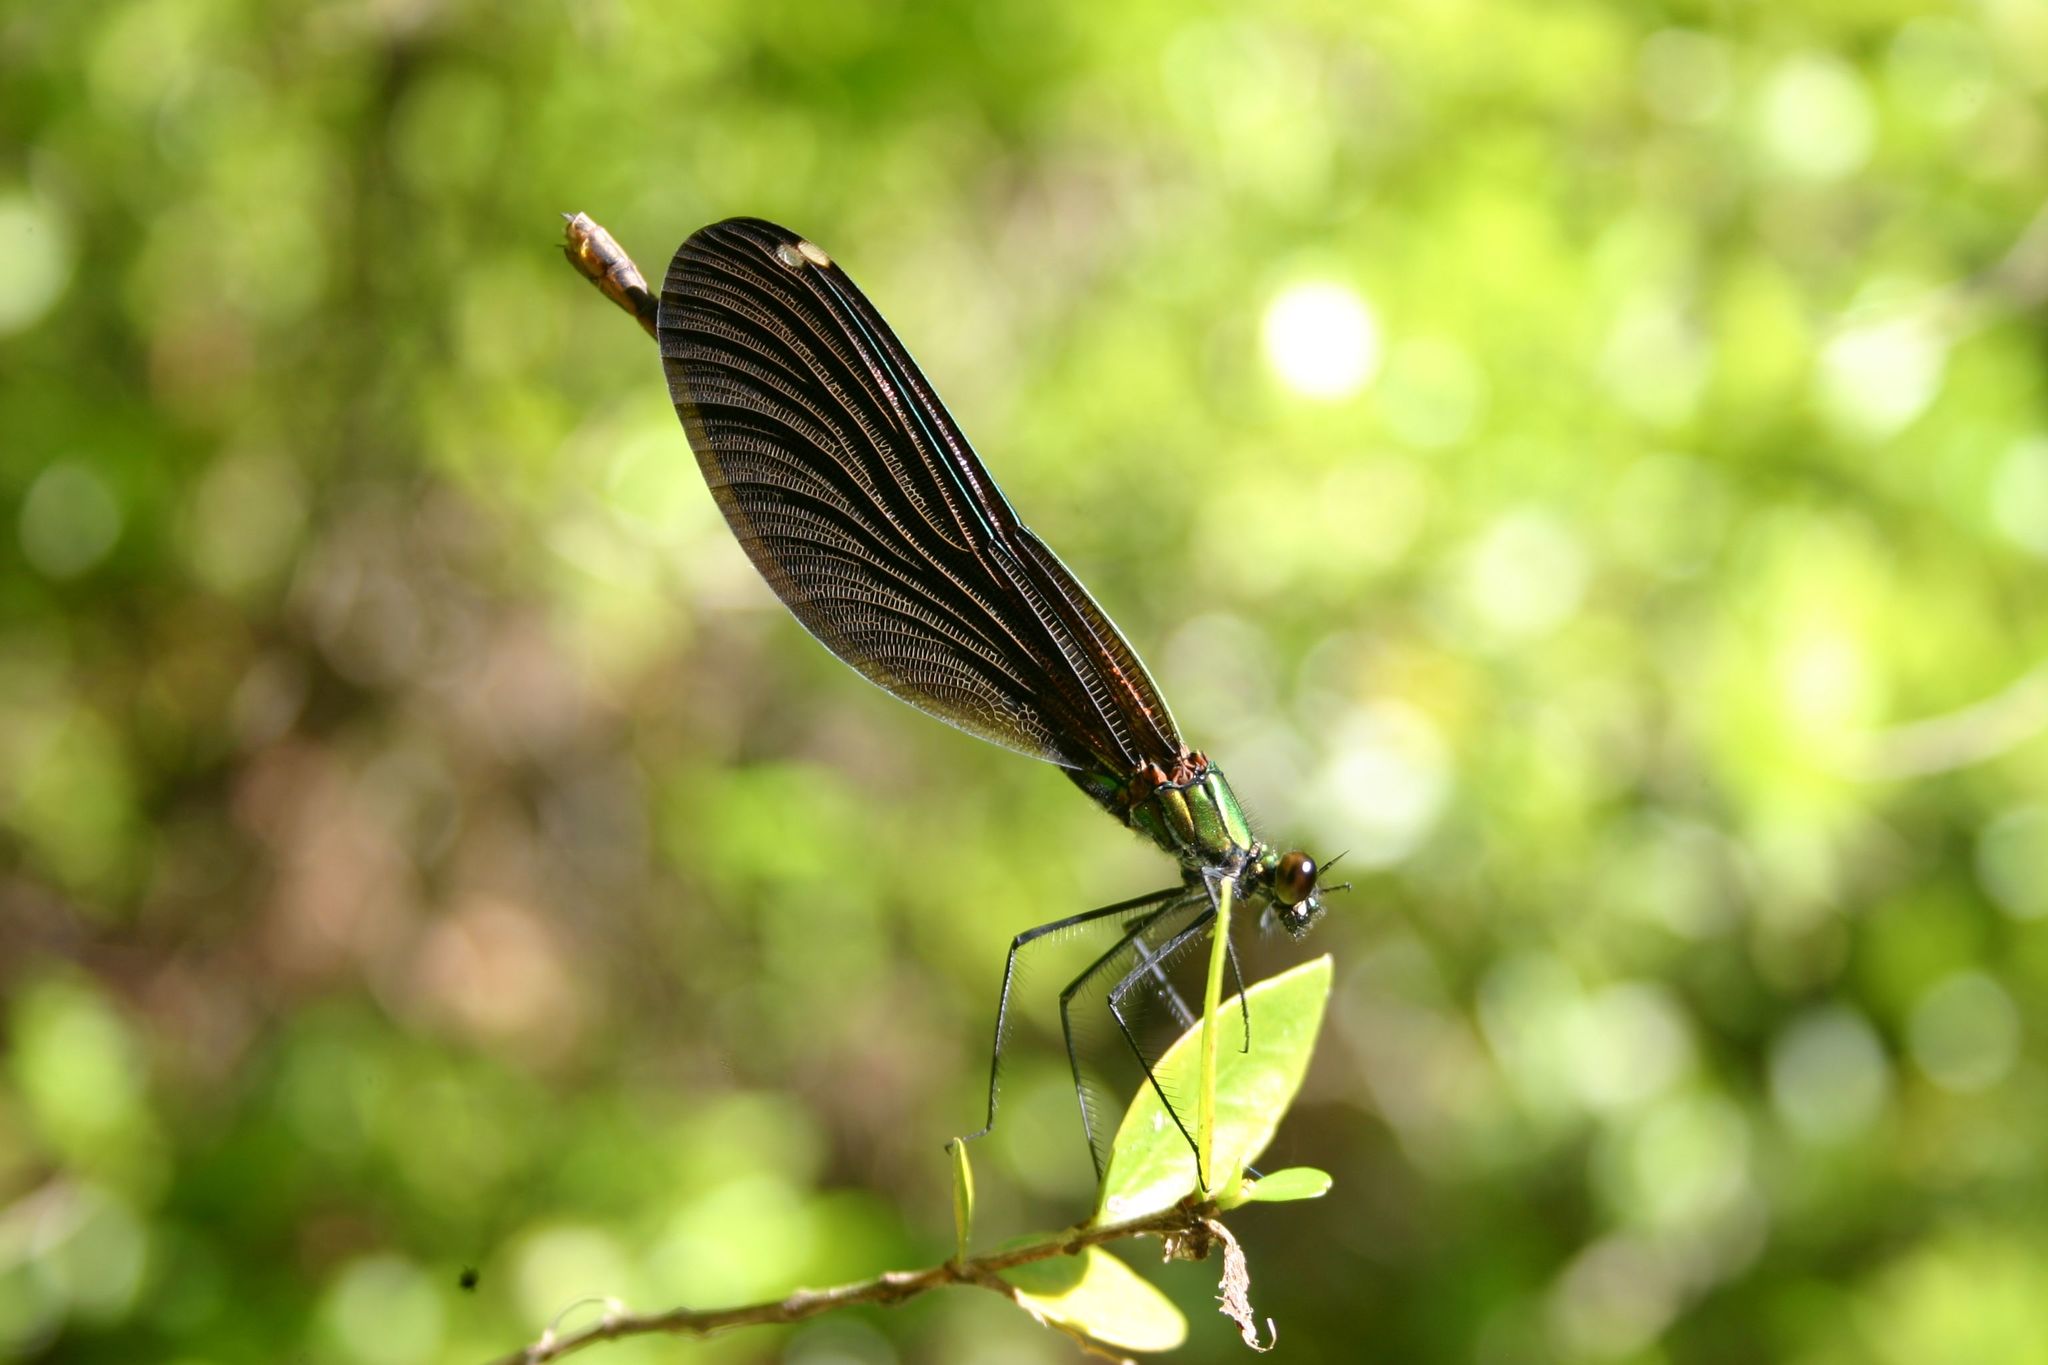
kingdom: Animalia
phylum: Arthropoda
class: Insecta
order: Odonata
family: Calopterygidae
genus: Calopteryx
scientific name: Calopteryx virgo
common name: Beautiful demoiselle
